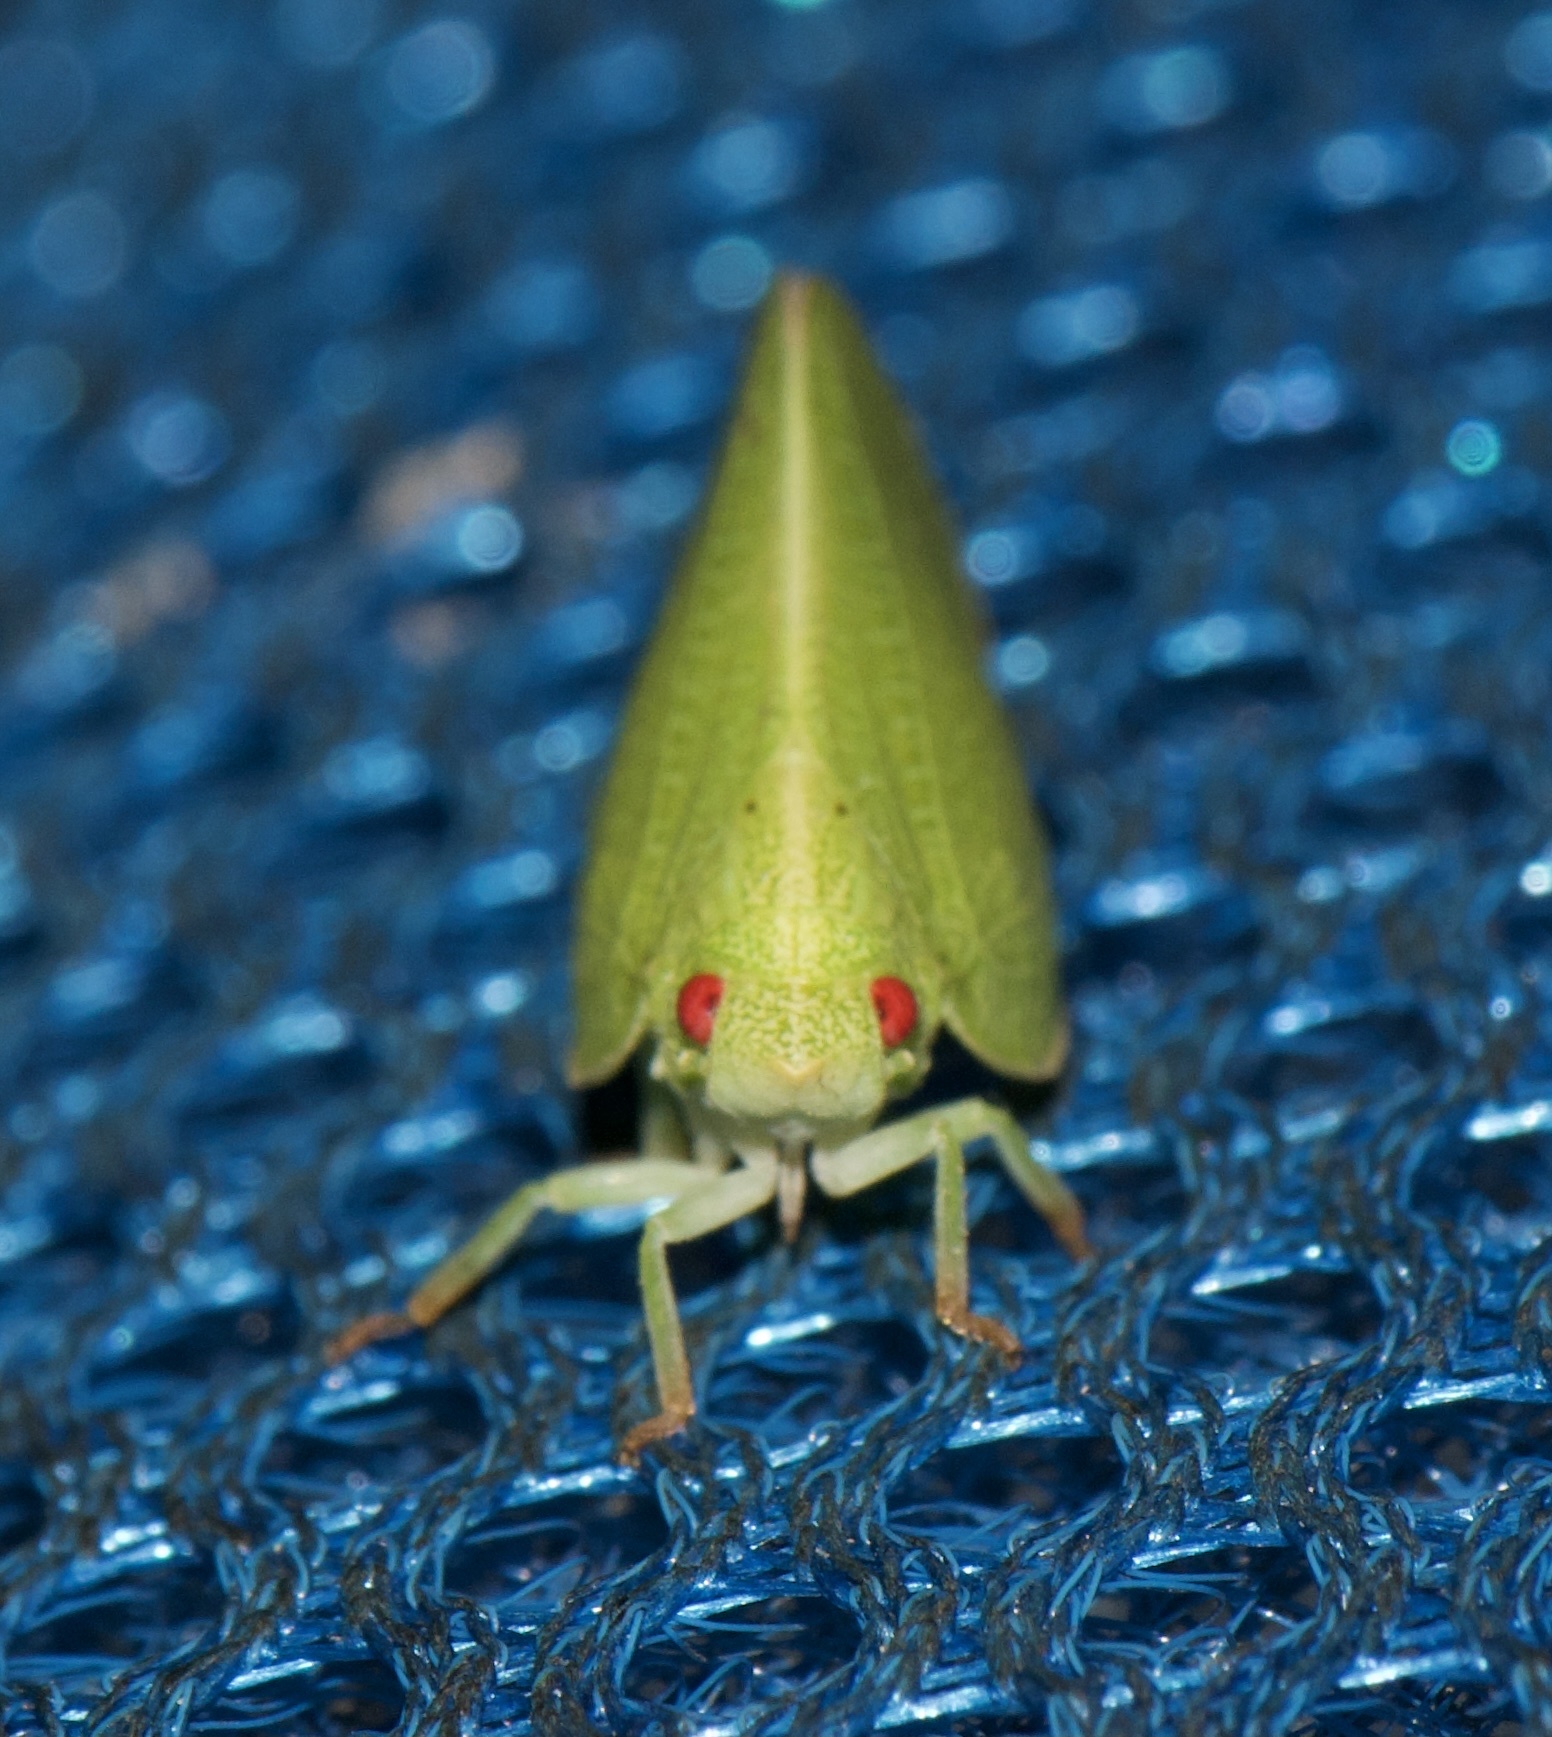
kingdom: Animalia
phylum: Arthropoda
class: Insecta
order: Hemiptera
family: Acanaloniidae
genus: Acanalonia
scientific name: Acanalonia conica
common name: Green cone-headed planthopper
